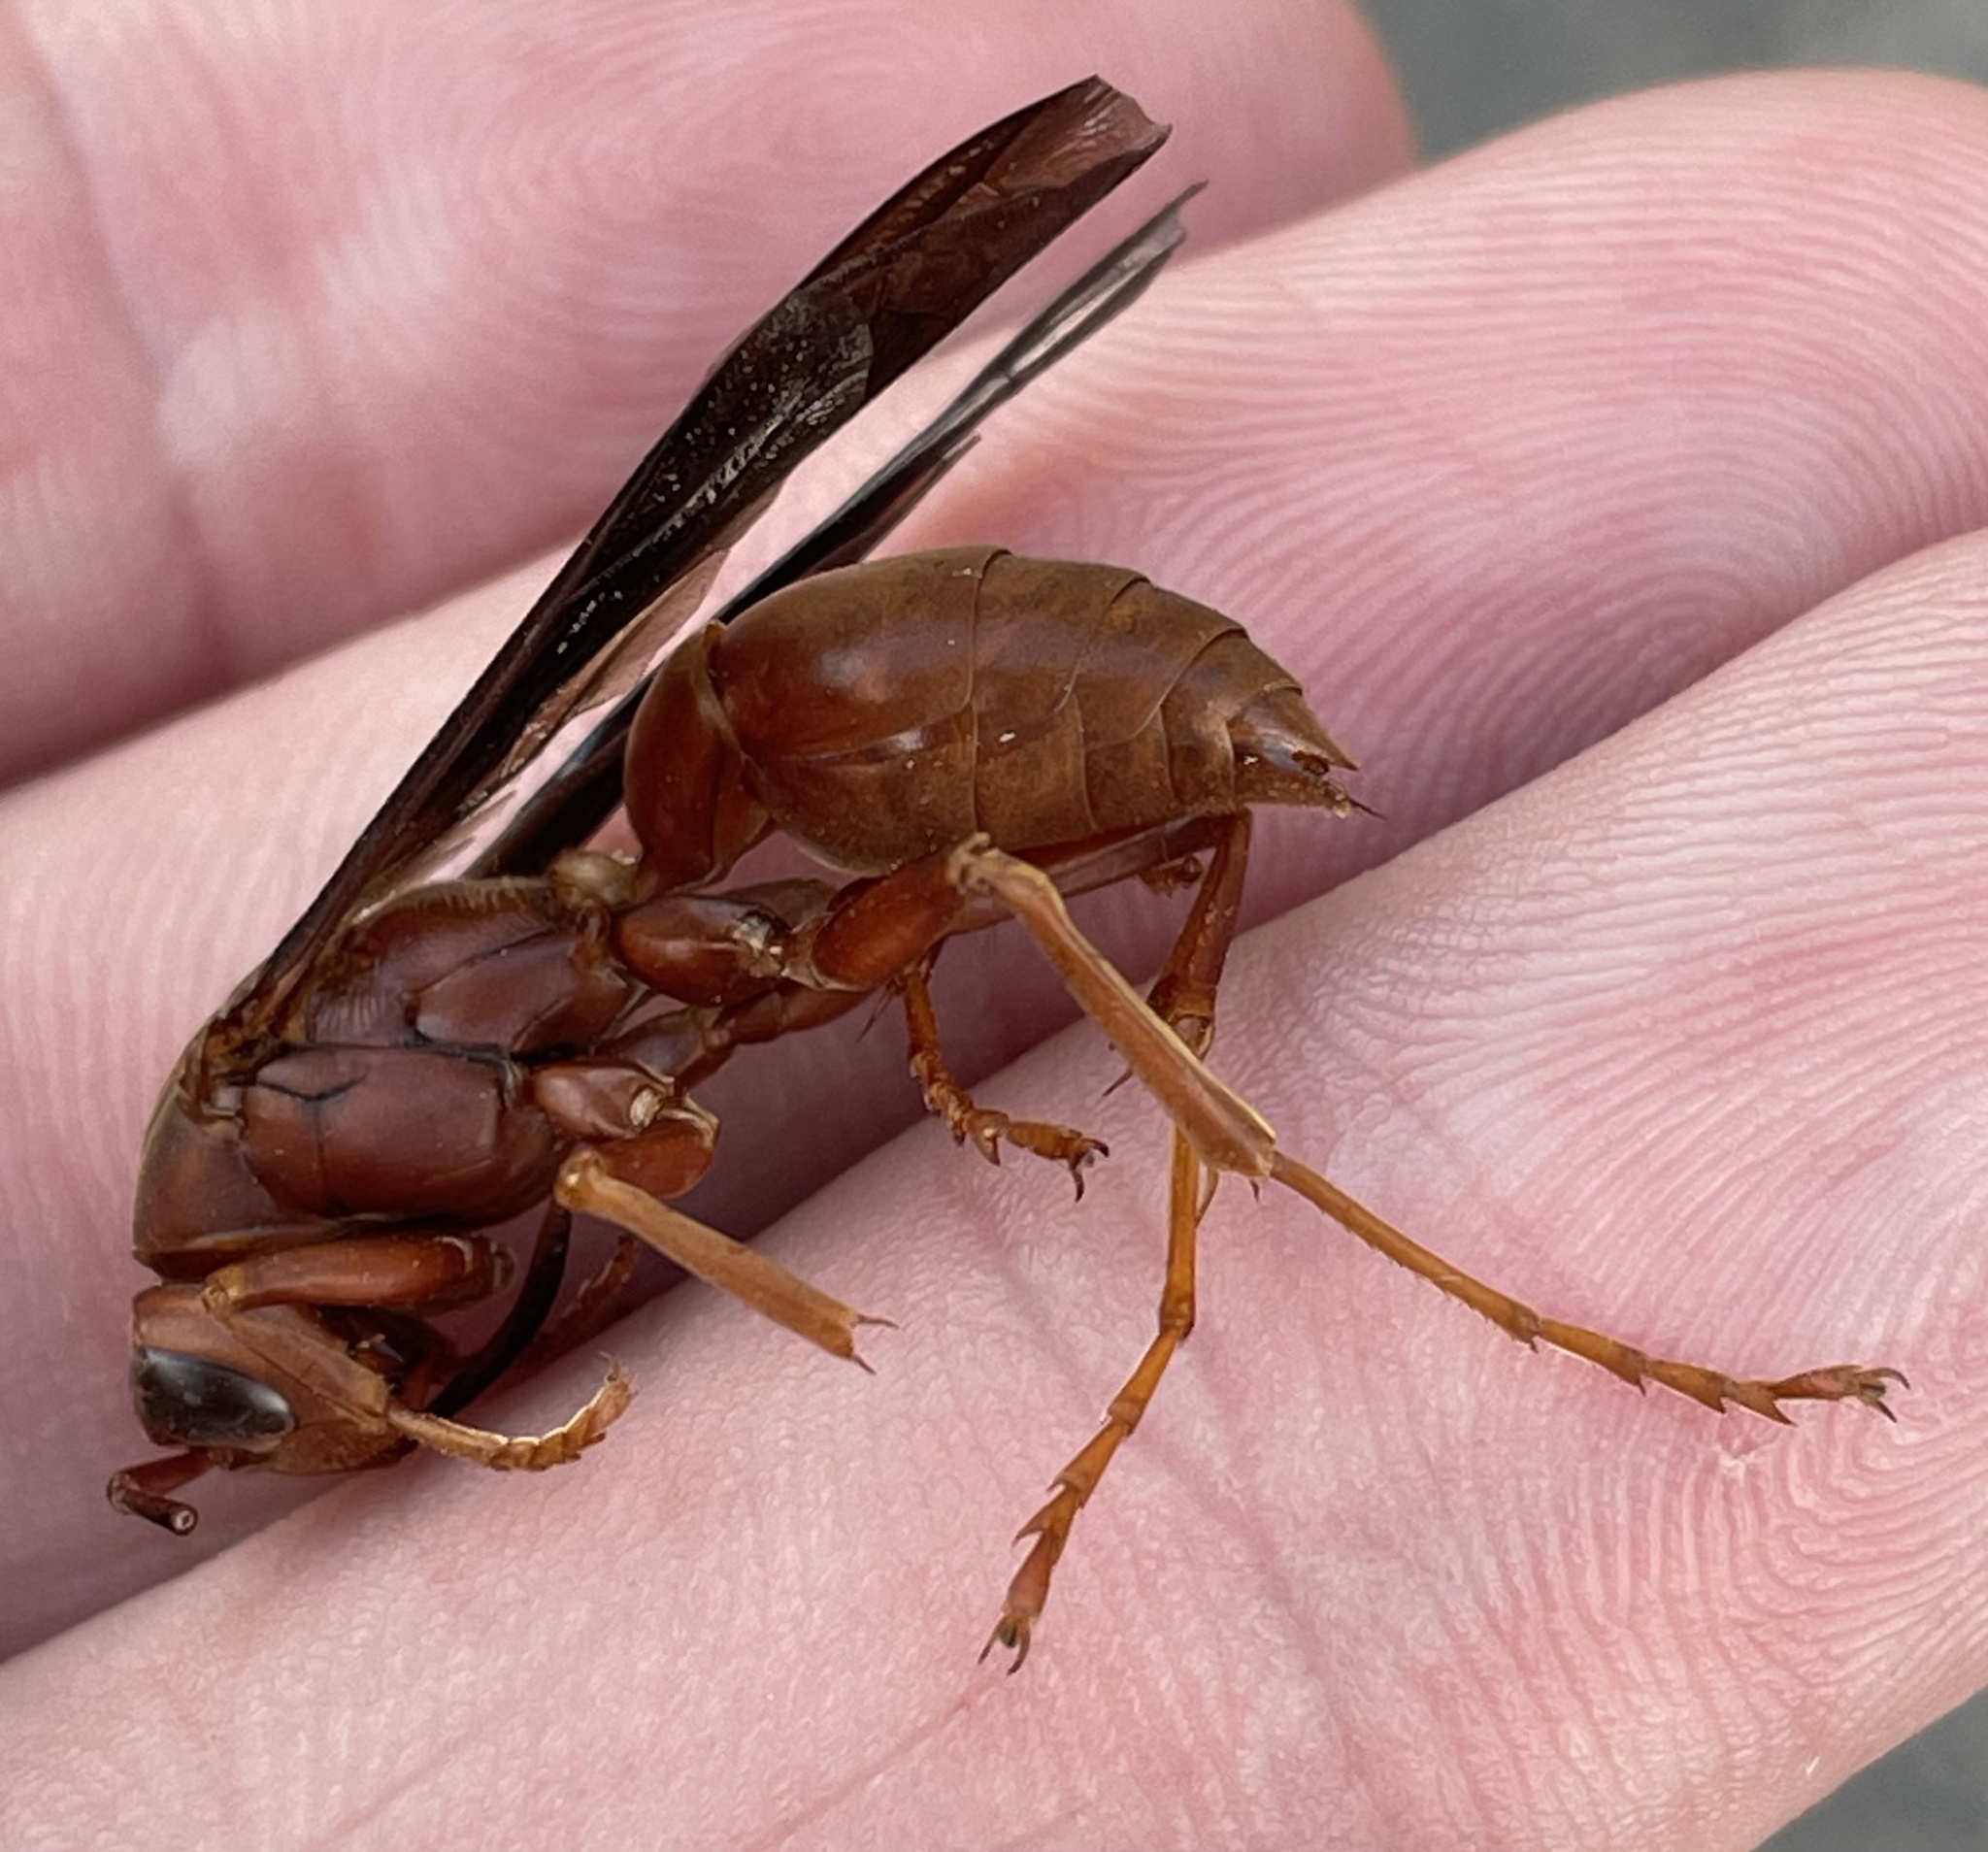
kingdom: Animalia
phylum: Arthropoda
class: Insecta
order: Hymenoptera
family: Vespidae
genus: Fuscopolistes
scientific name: Fuscopolistes
